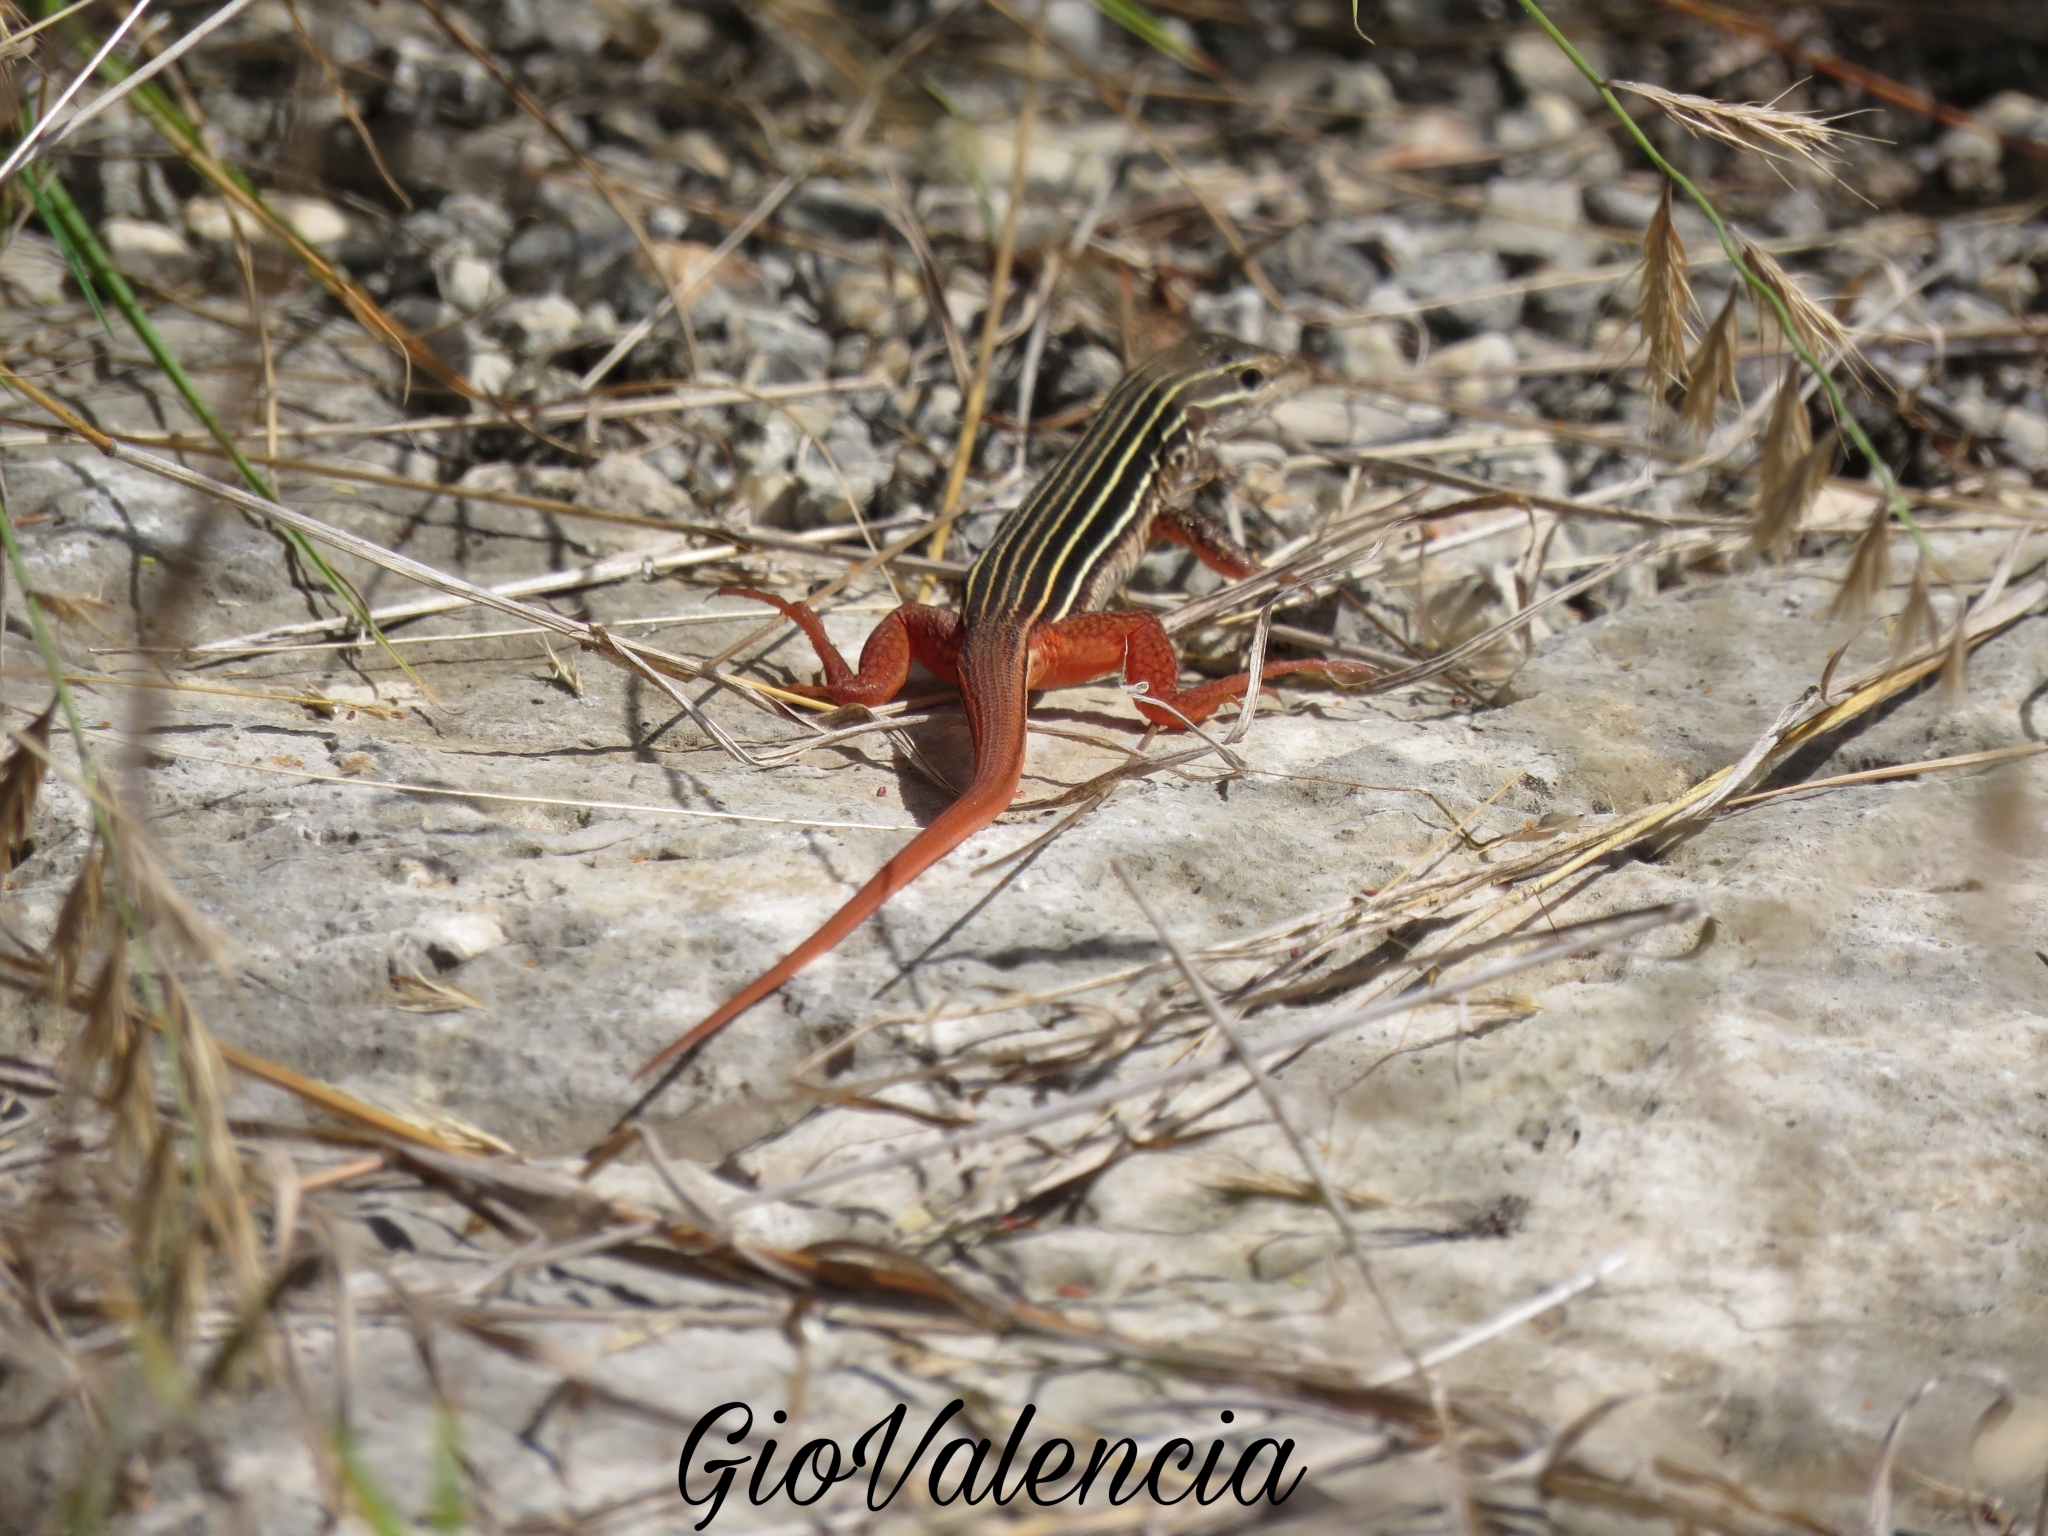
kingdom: Animalia
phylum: Chordata
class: Squamata
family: Teiidae
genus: Aspidoscelis
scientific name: Aspidoscelis angusticeps
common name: Yucatan whiptail
